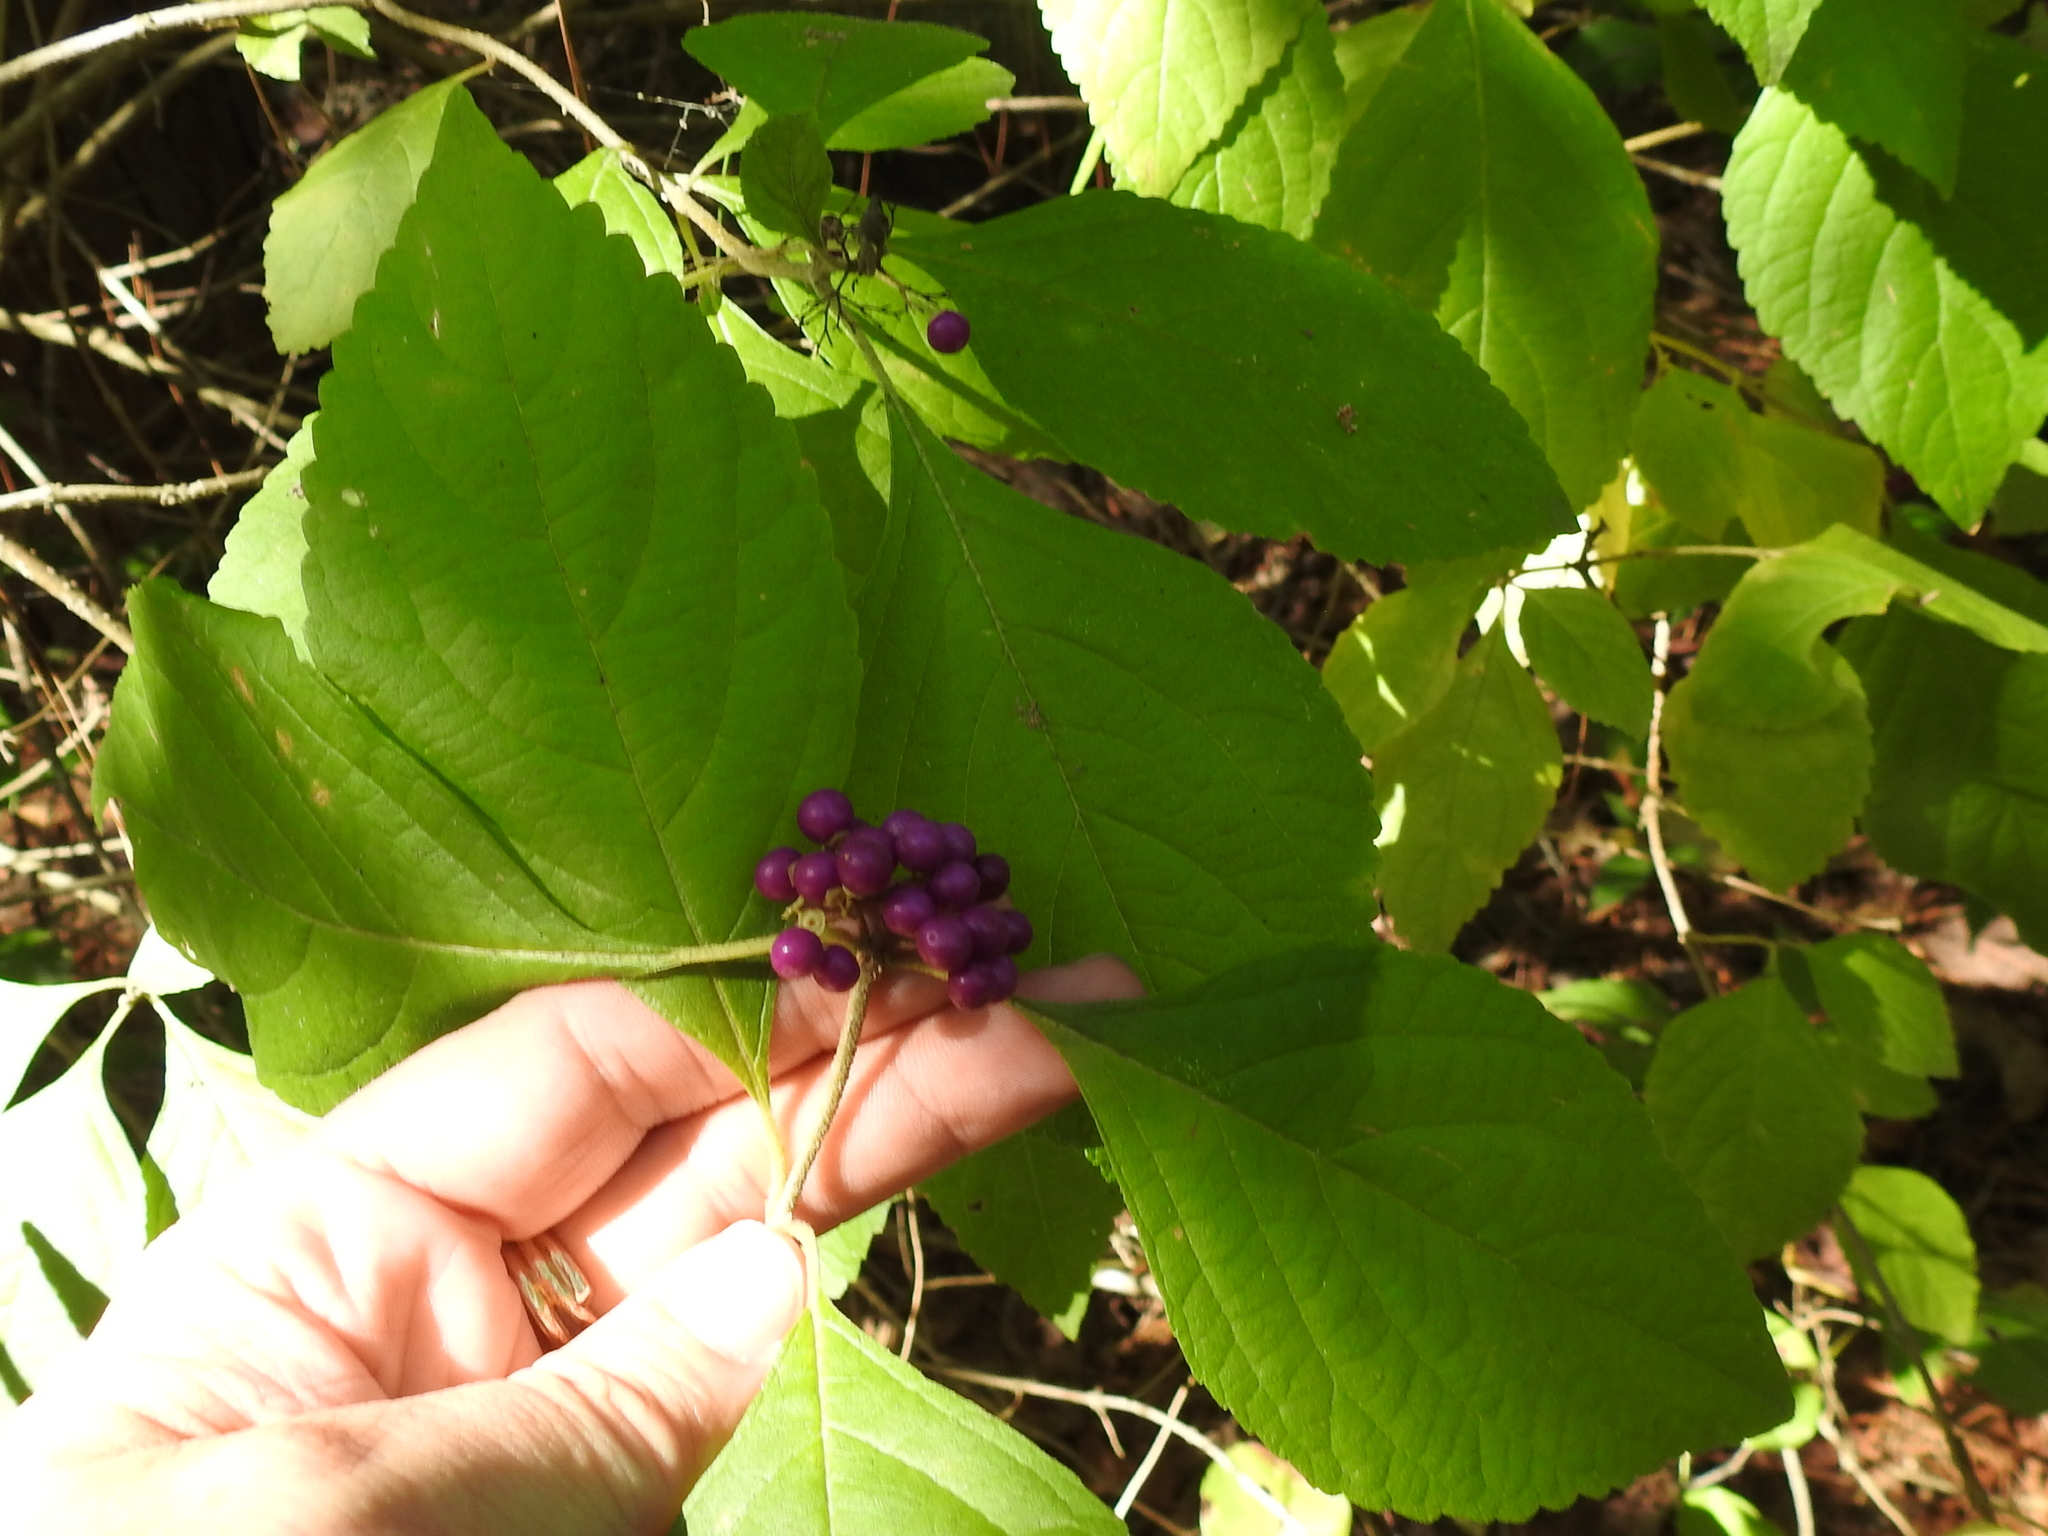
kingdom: Plantae
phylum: Tracheophyta
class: Magnoliopsida
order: Lamiales
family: Lamiaceae
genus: Callicarpa
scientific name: Callicarpa americana
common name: American beautyberry
